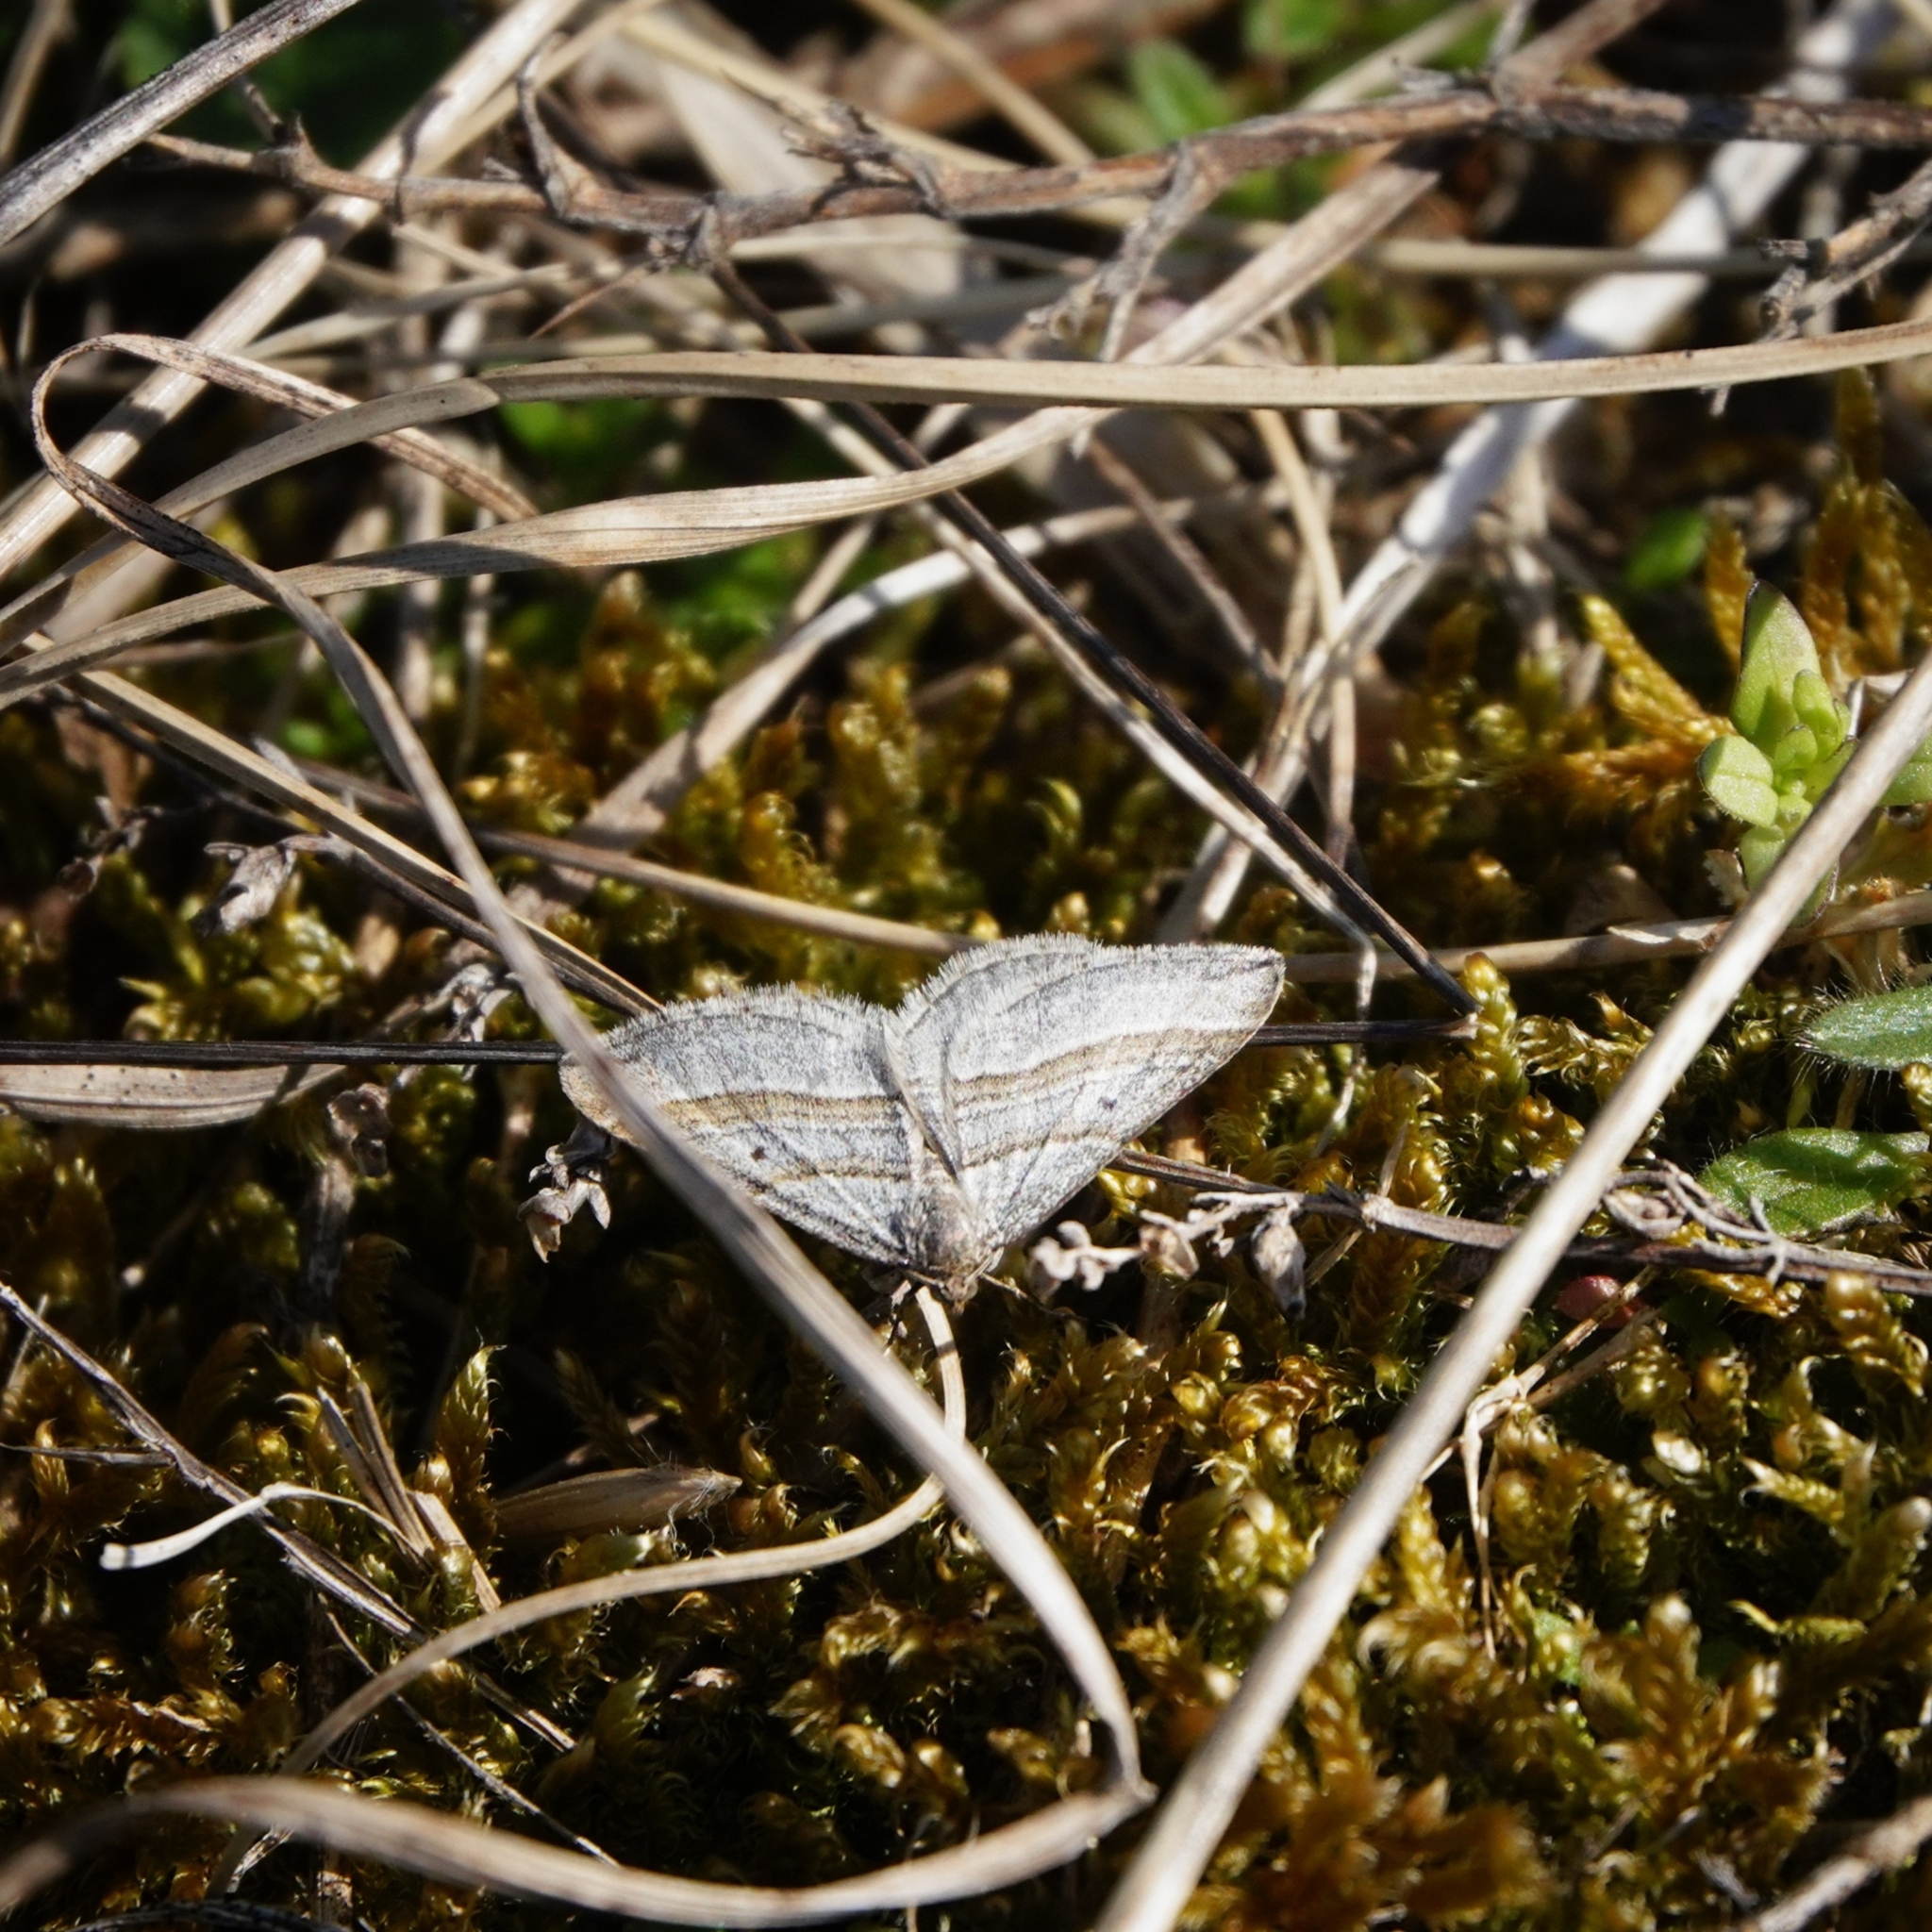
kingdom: Animalia
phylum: Arthropoda
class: Insecta
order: Lepidoptera
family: Geometridae
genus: Phibalapteryx
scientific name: Phibalapteryx virgata
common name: Oblique striped
